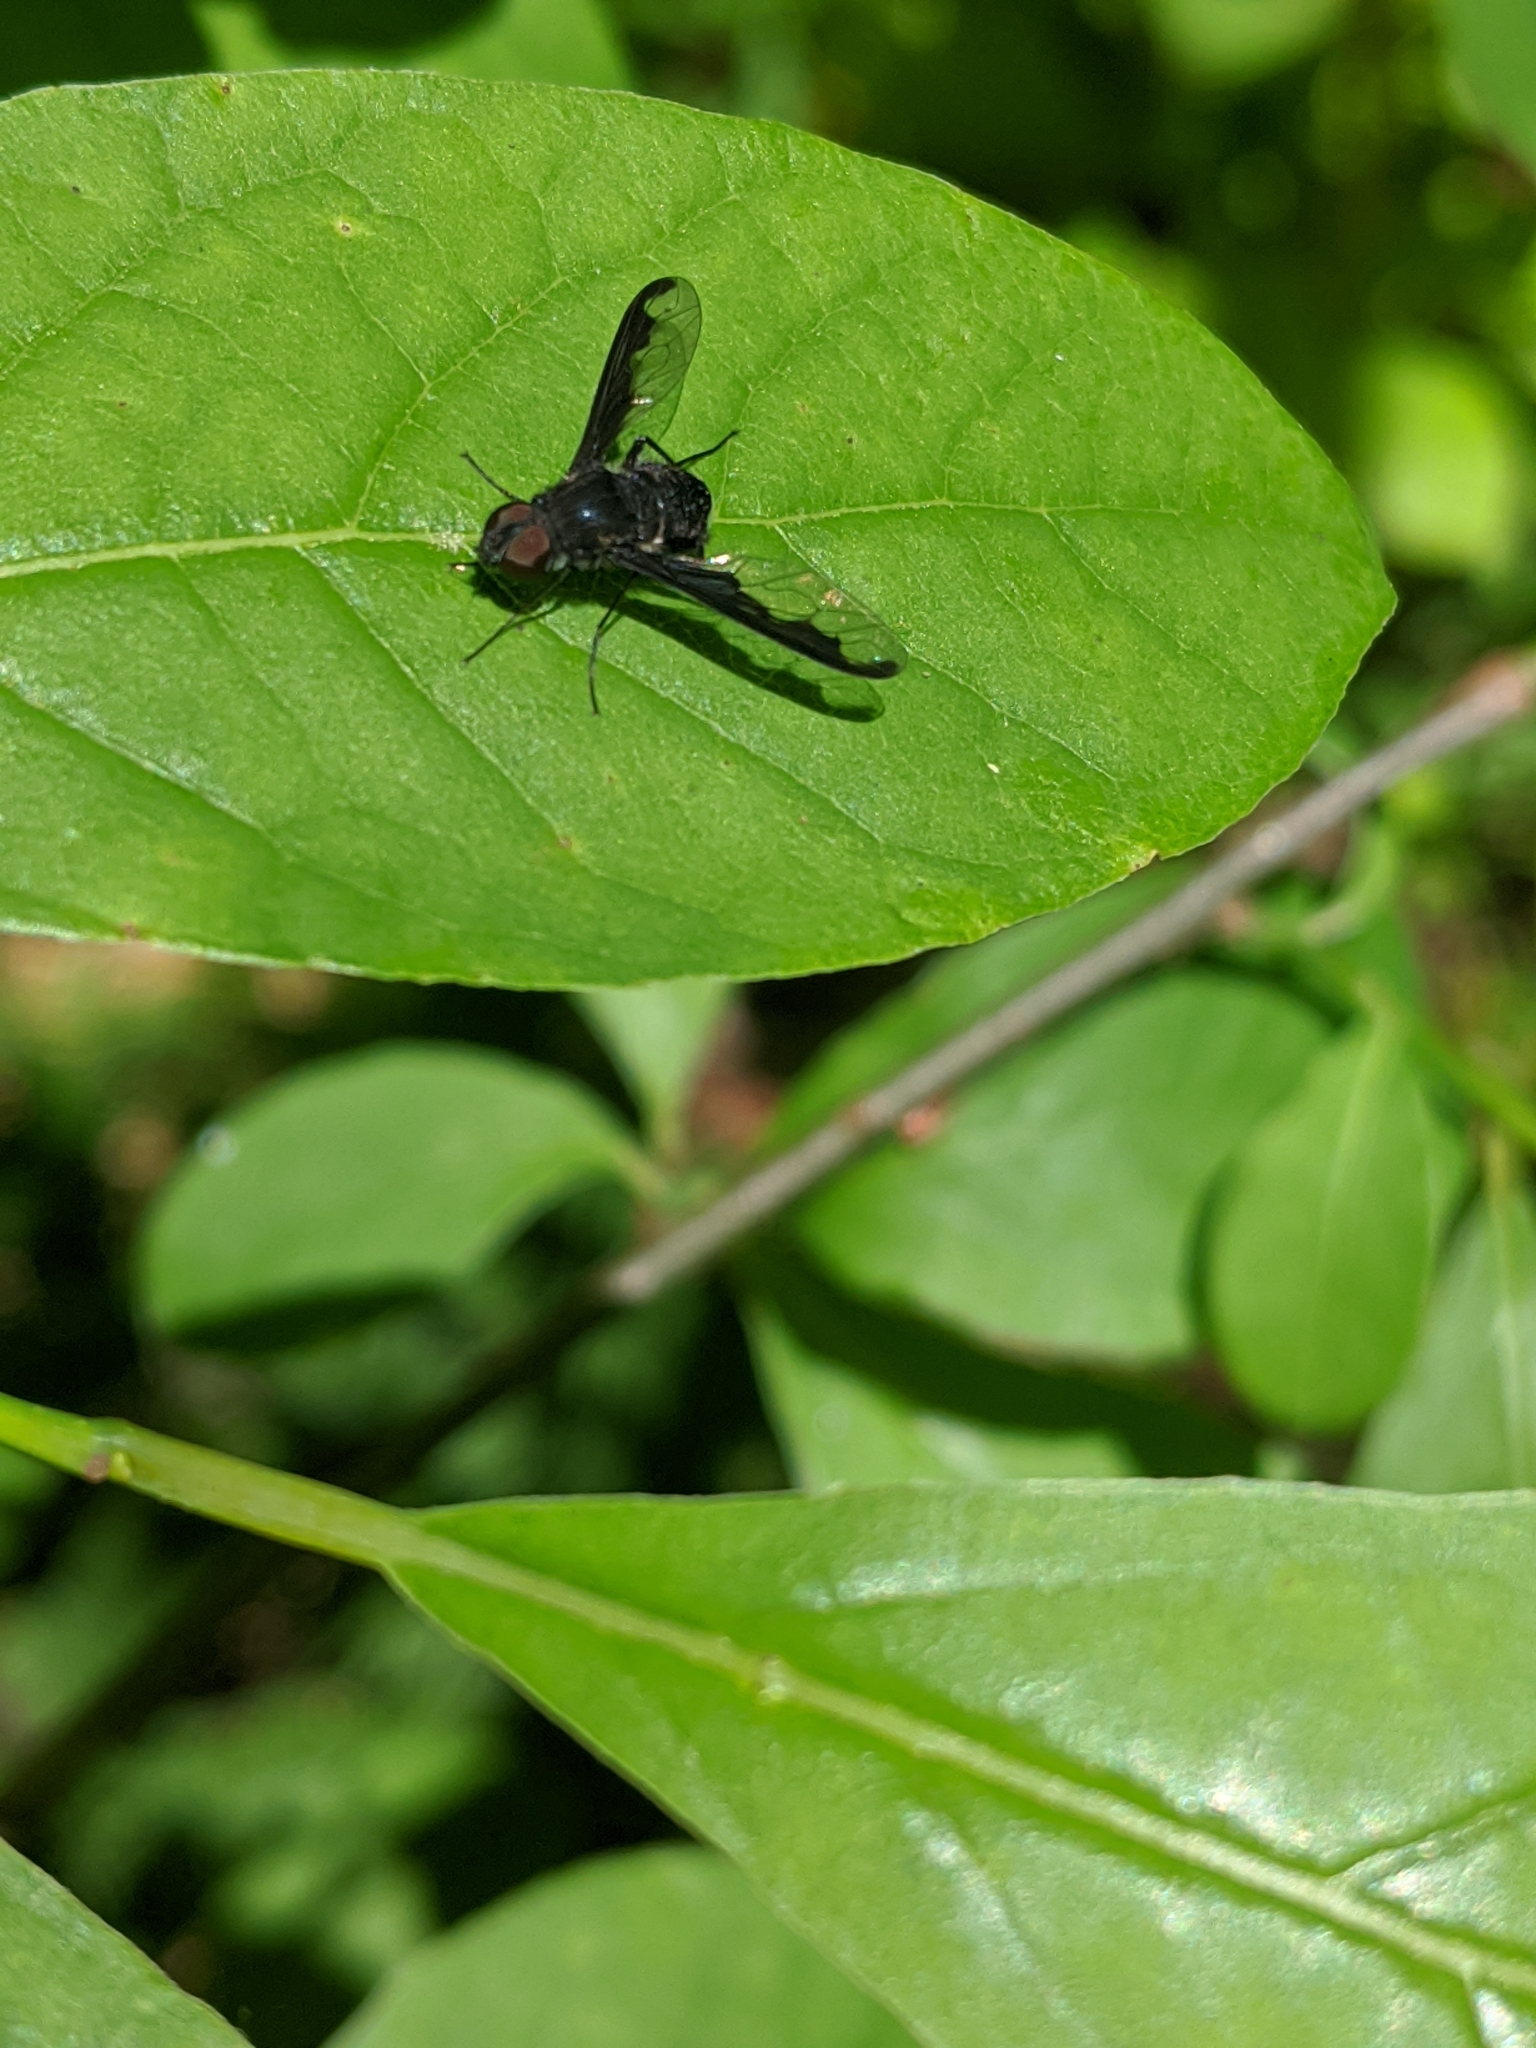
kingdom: Animalia
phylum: Arthropoda
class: Insecta
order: Diptera
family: Bombyliidae
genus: Anthrax
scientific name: Anthrax argyropygus
